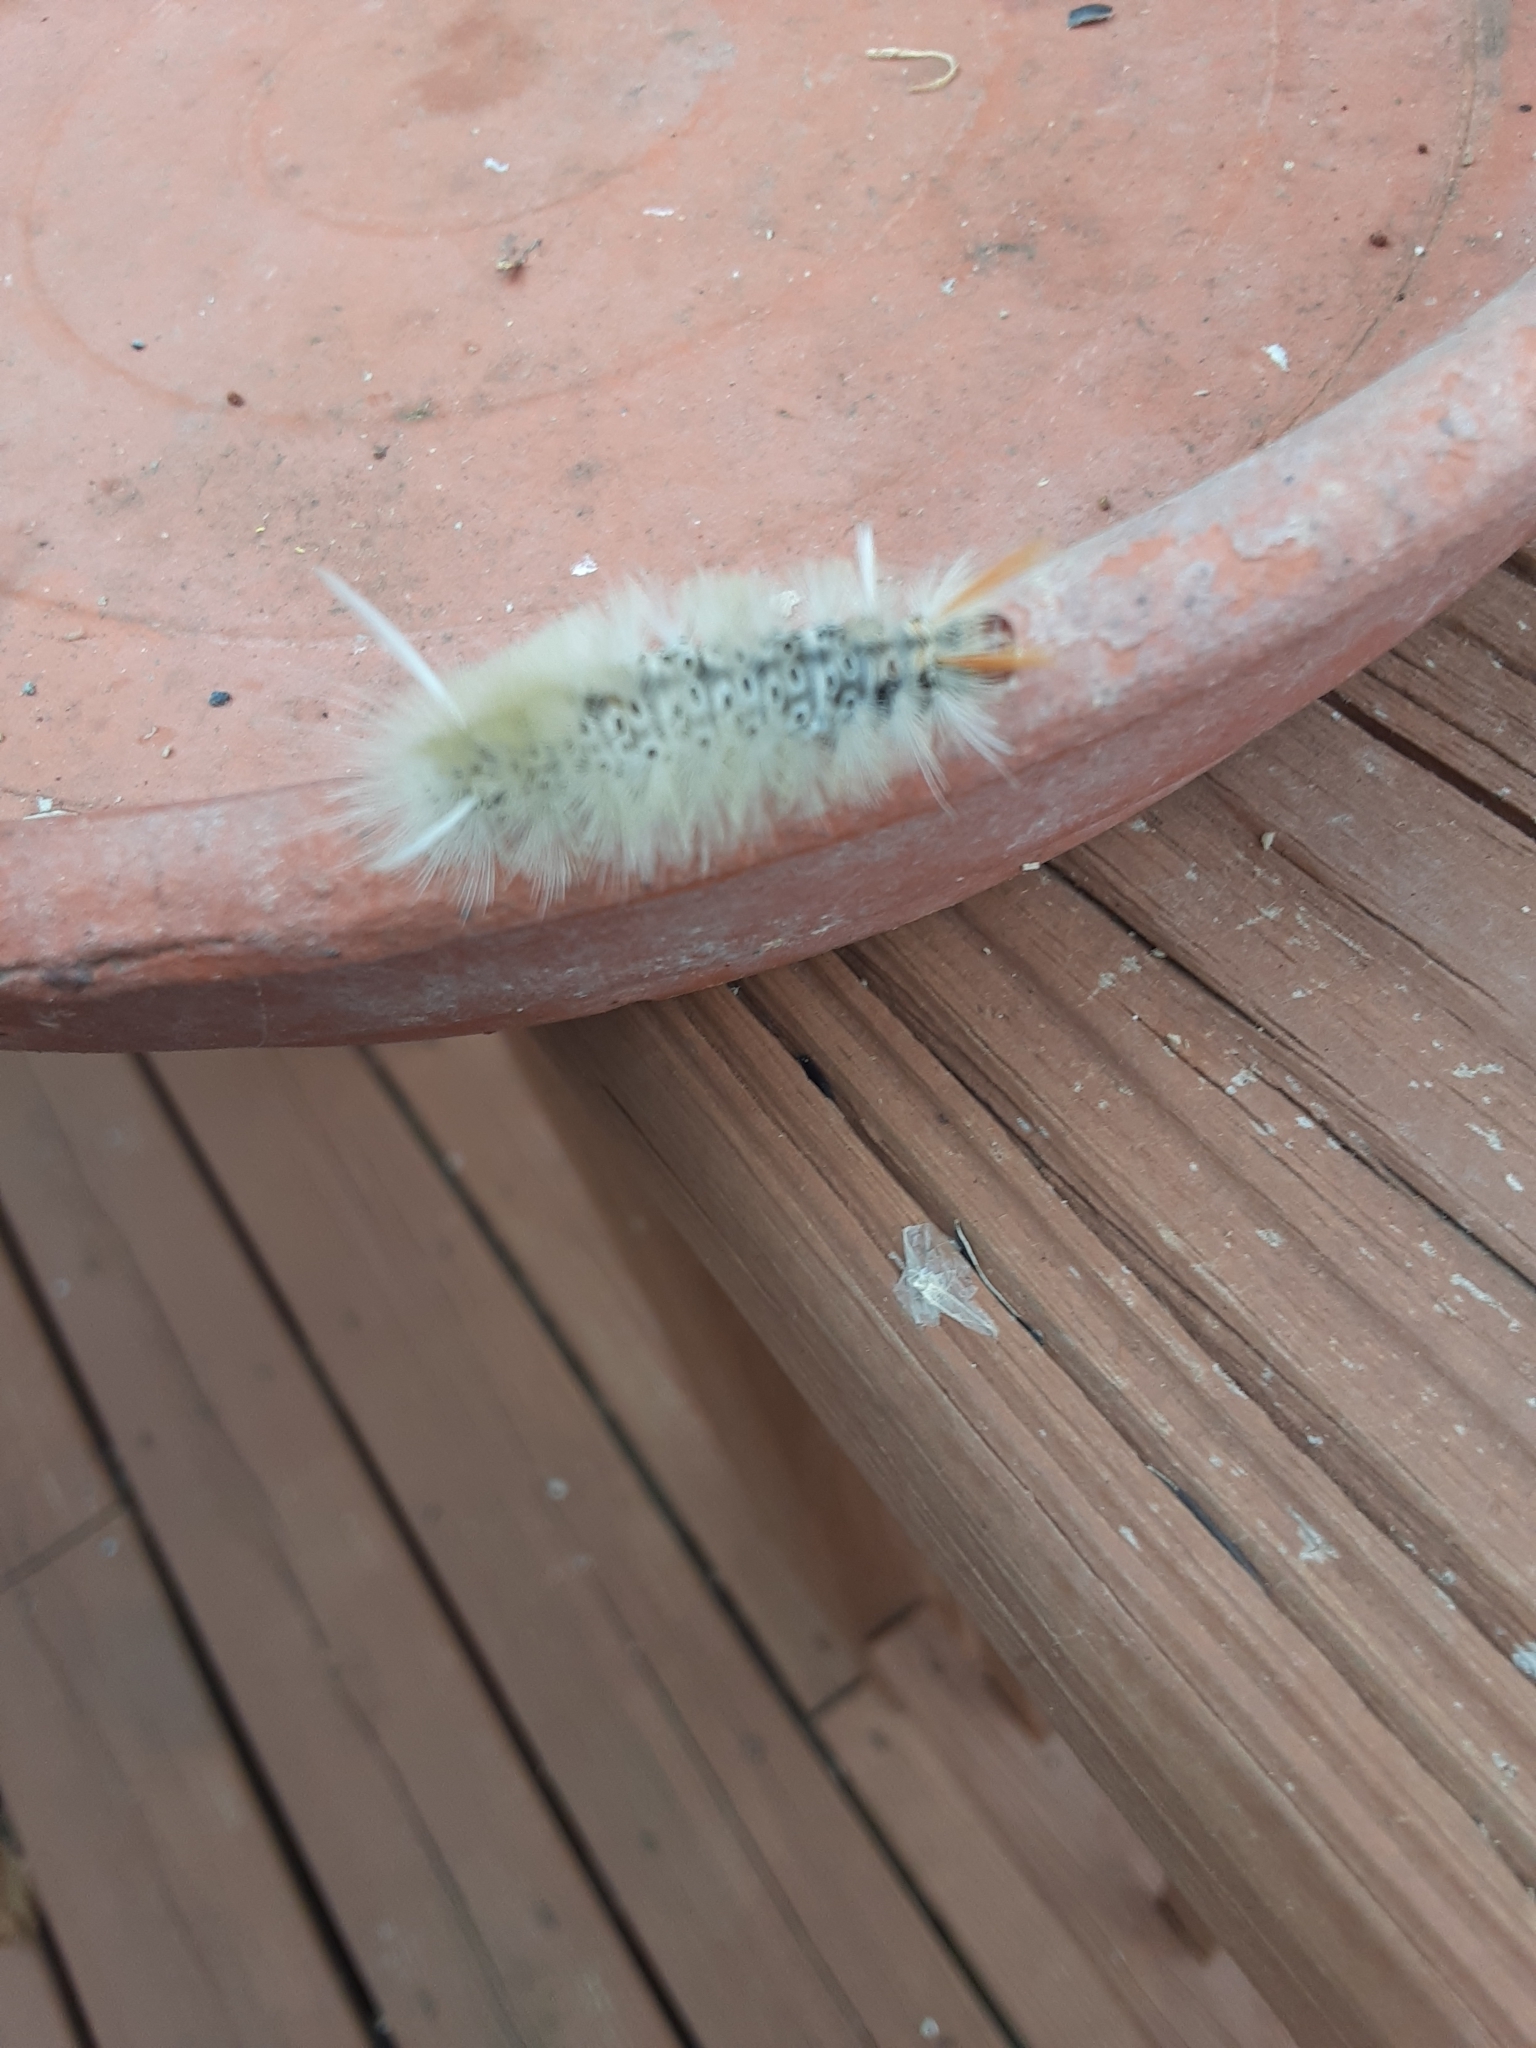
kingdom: Animalia
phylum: Arthropoda
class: Insecta
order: Lepidoptera
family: Erebidae
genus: Halysidota
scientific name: Halysidota harrisii
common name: Sycamore tussock moth
